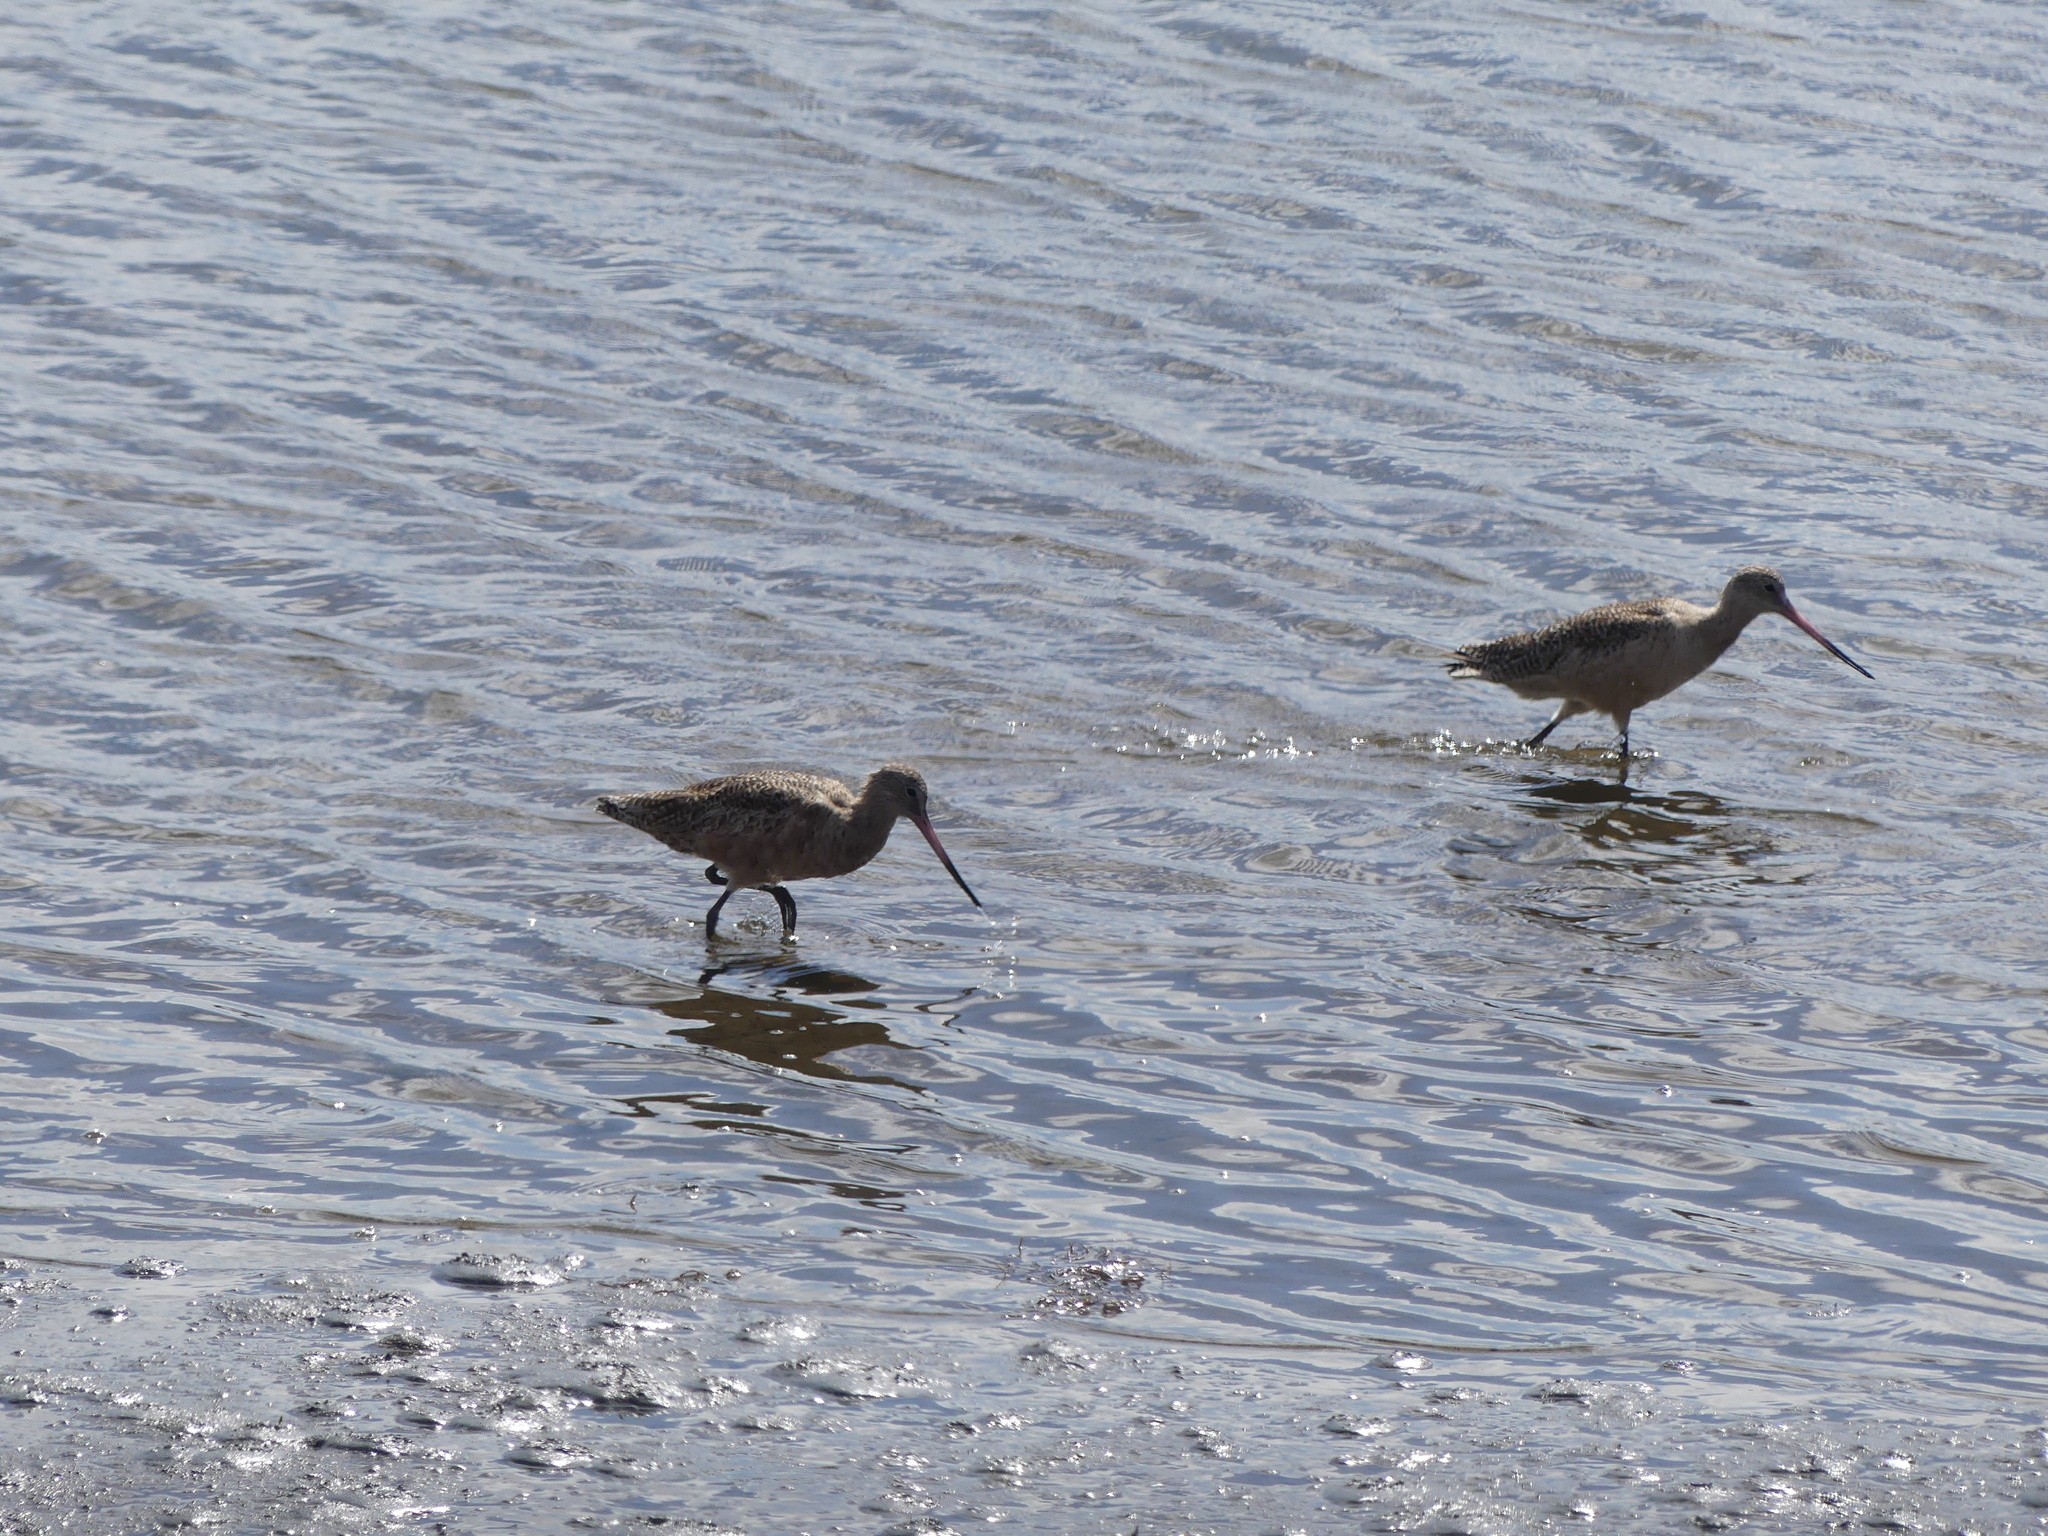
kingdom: Animalia
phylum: Chordata
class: Aves
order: Charadriiformes
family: Scolopacidae
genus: Limosa
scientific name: Limosa fedoa
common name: Marbled godwit
